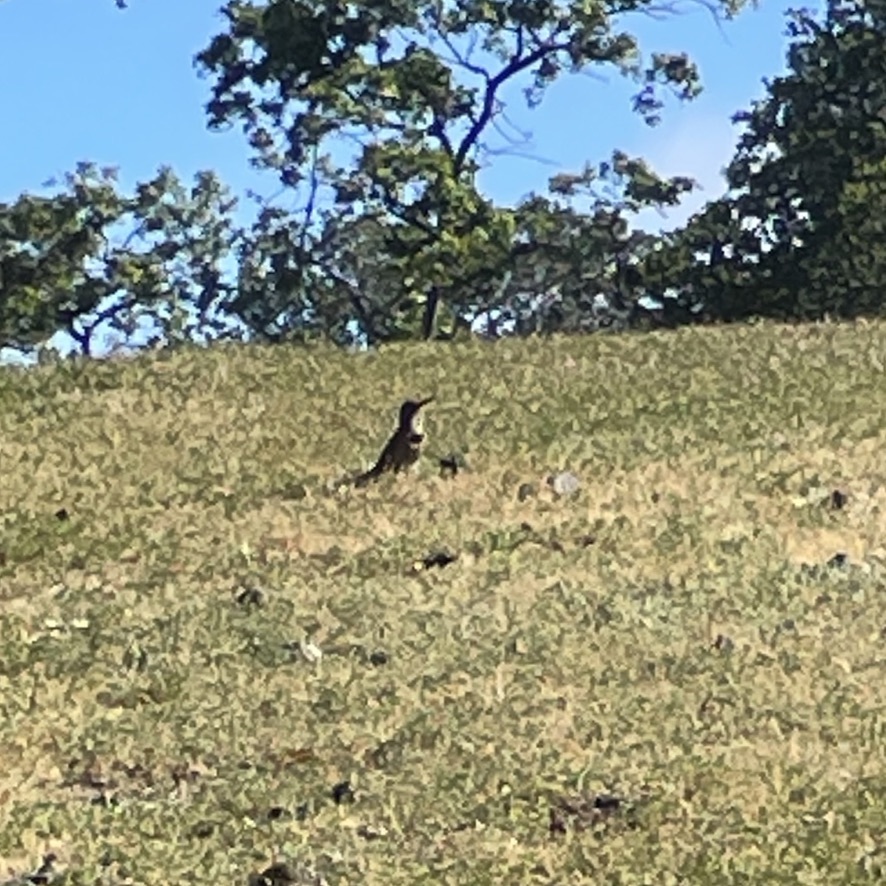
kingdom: Animalia
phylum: Chordata
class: Aves
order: Piciformes
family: Picidae
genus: Colaptes
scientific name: Colaptes auratus
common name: Northern flicker
